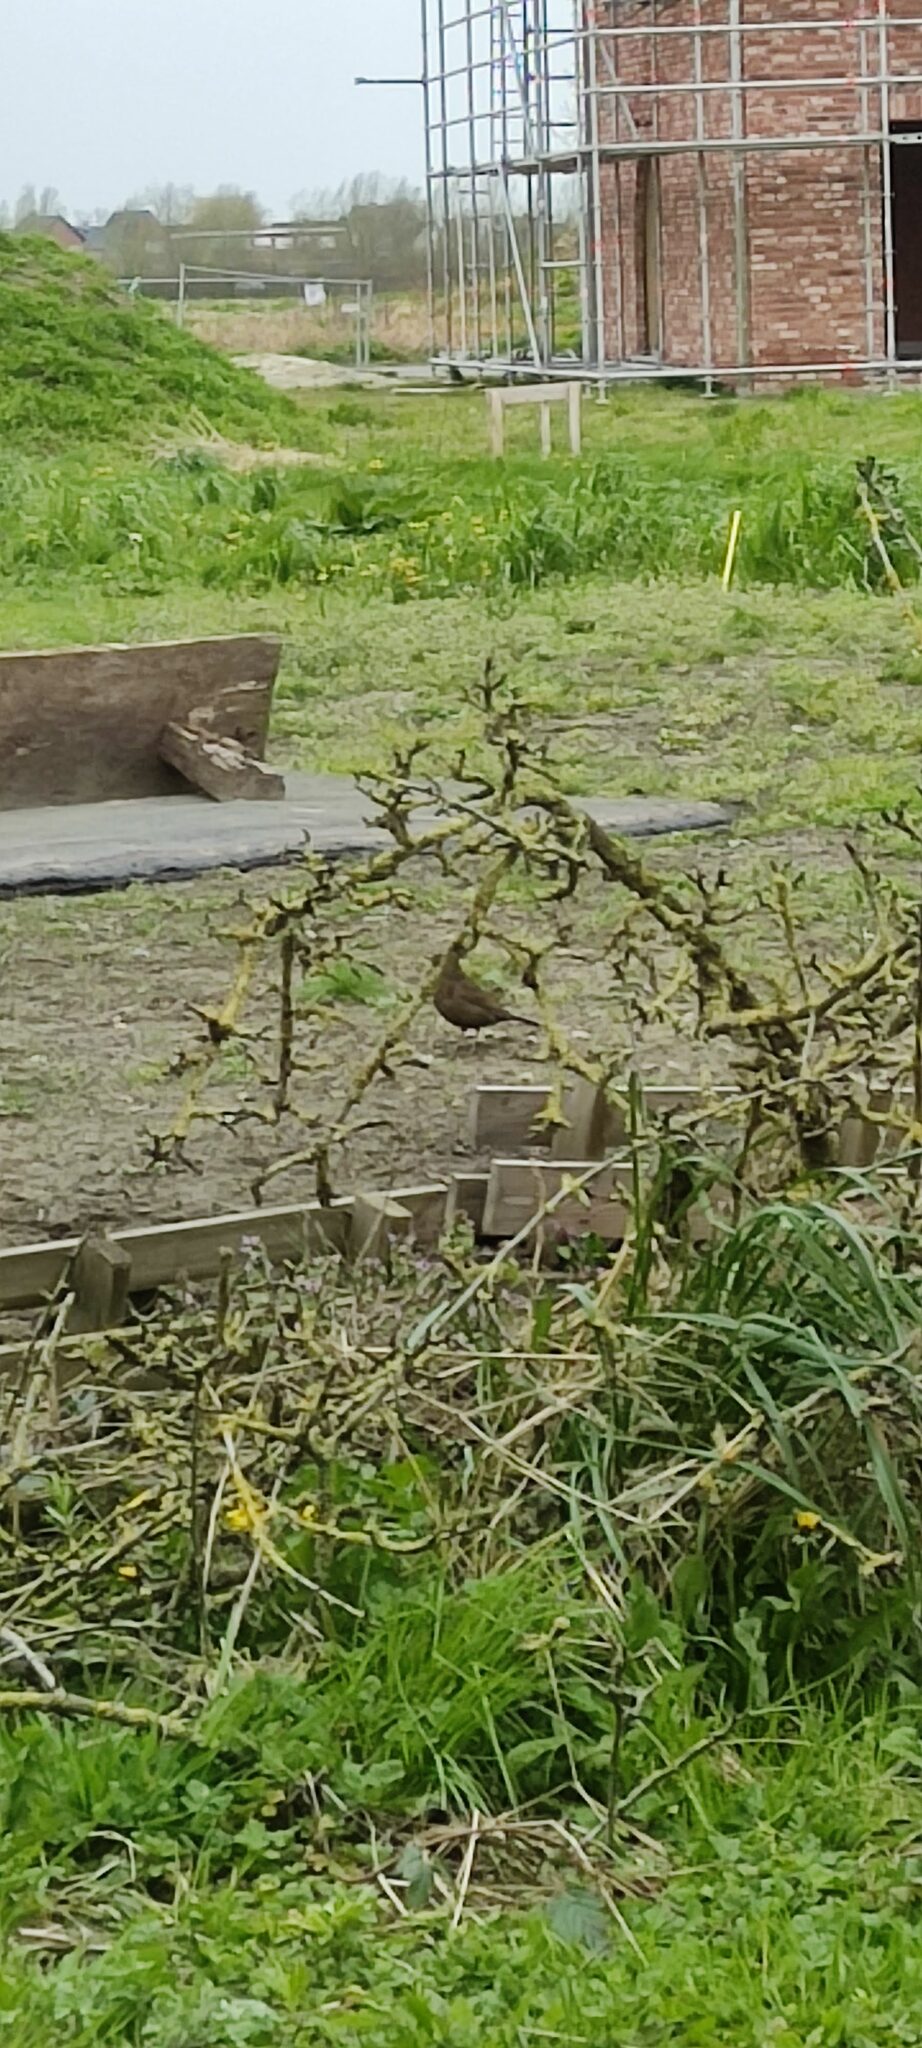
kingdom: Animalia
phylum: Chordata
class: Aves
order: Passeriformes
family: Turdidae
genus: Turdus
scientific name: Turdus merula
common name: Common blackbird
